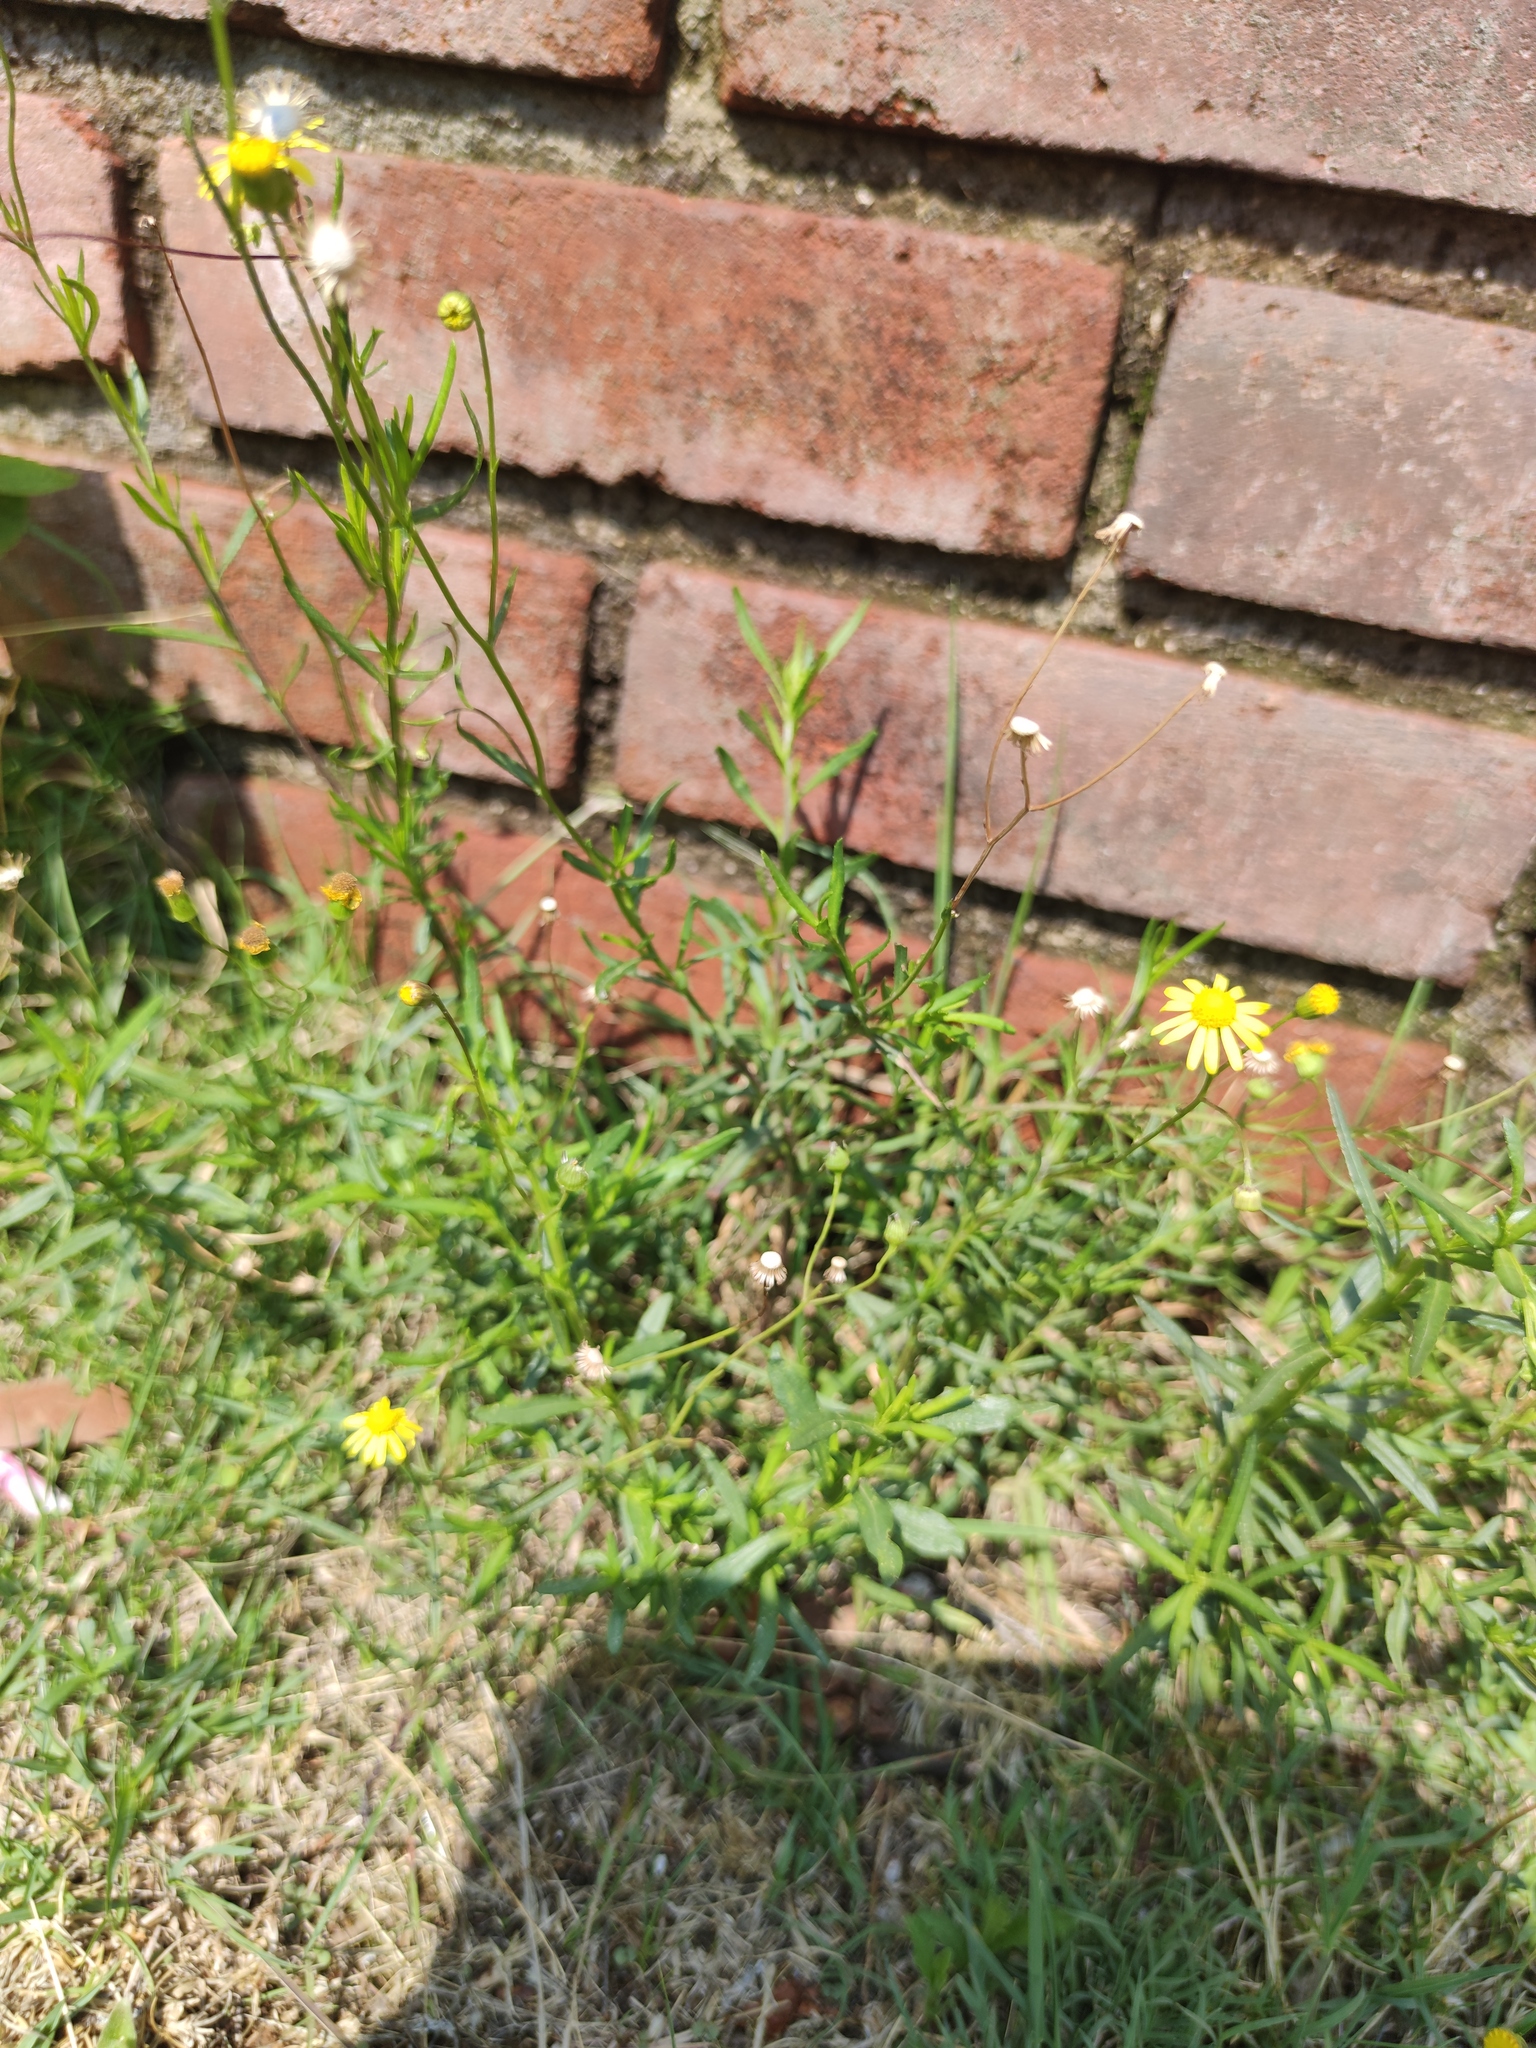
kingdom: Plantae
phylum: Tracheophyta
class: Magnoliopsida
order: Asterales
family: Asteraceae
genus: Senecio
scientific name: Senecio inaequidens
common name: Narrow-leaved ragwort
